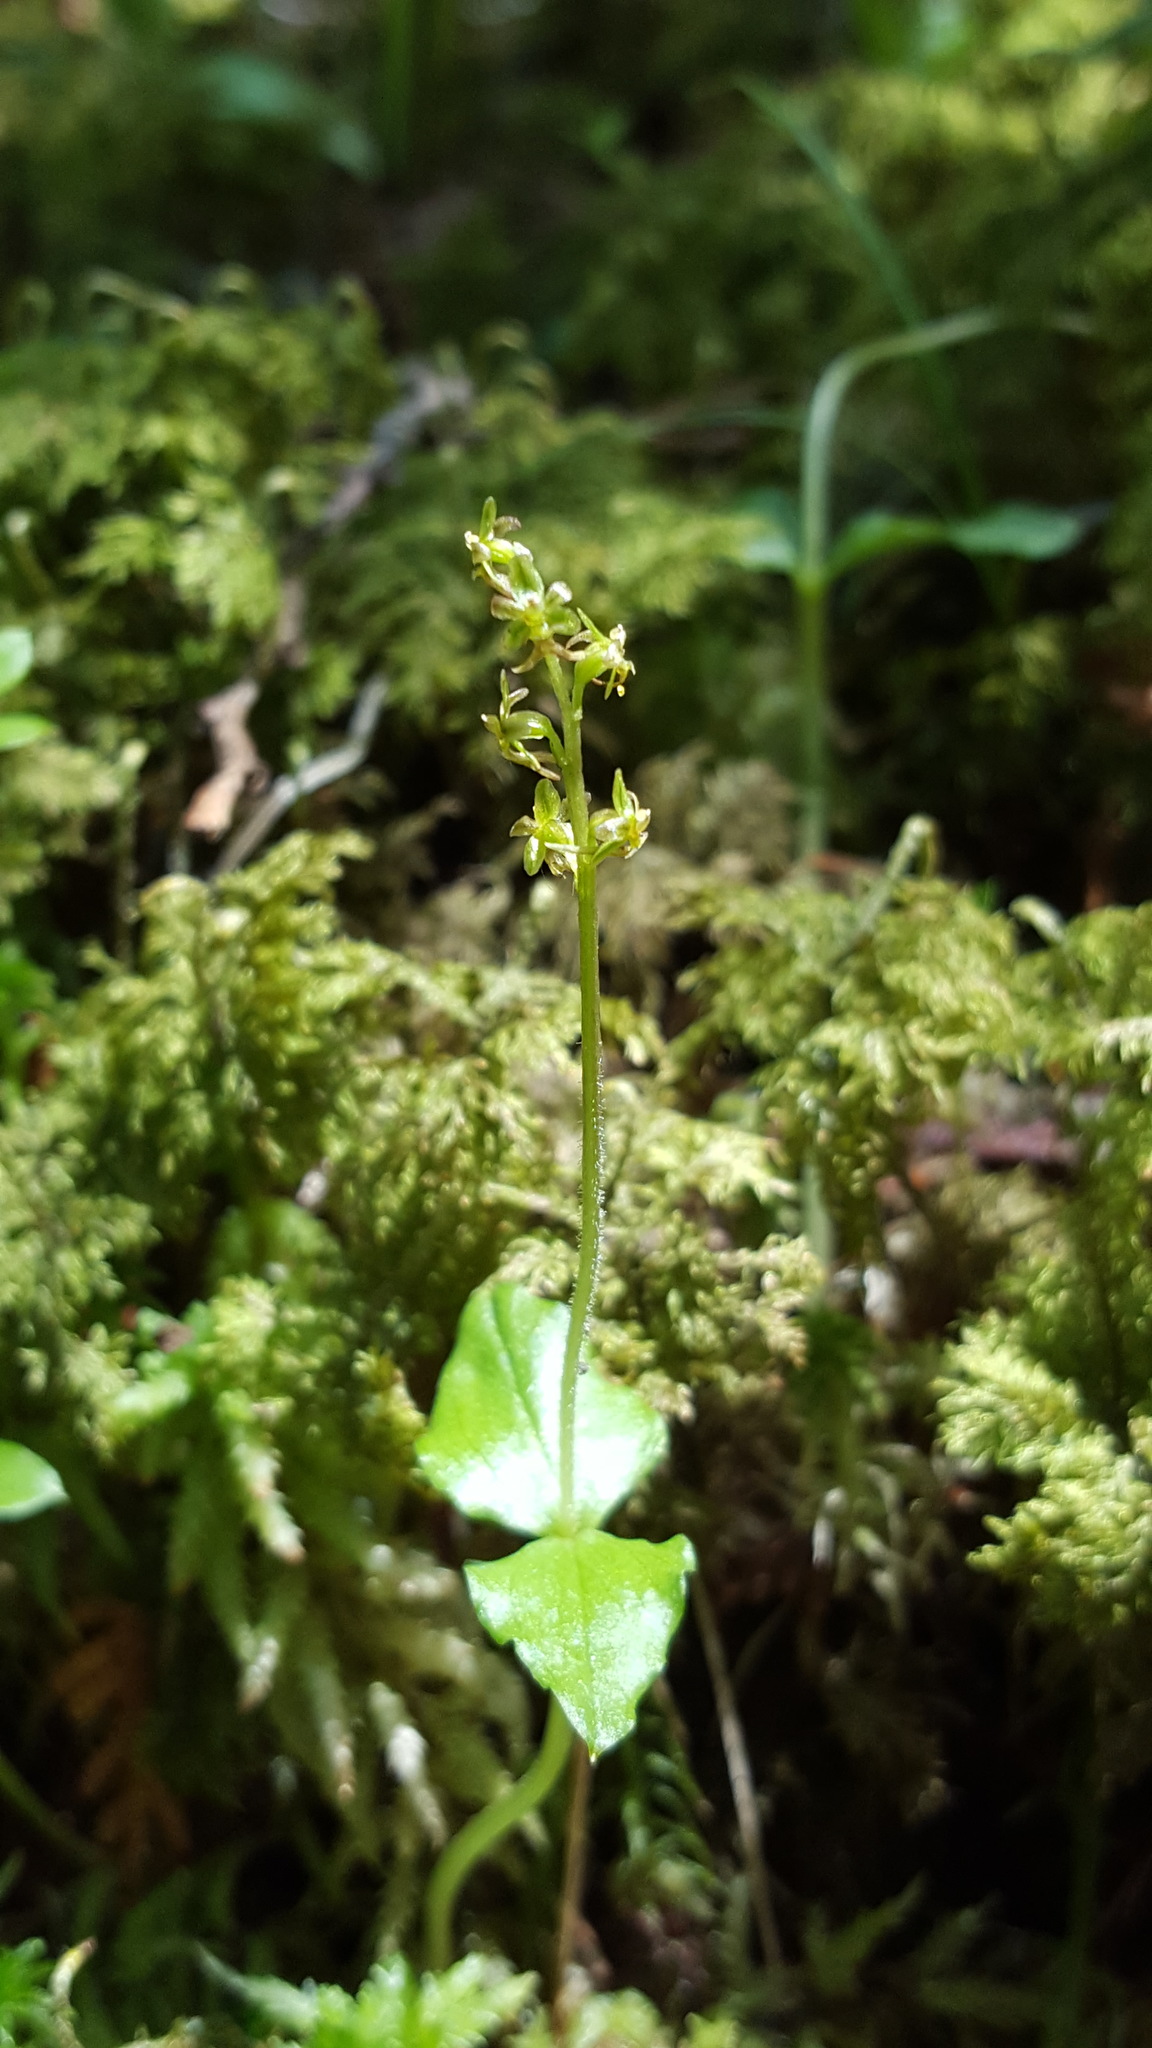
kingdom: Plantae
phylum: Tracheophyta
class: Liliopsida
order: Asparagales
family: Orchidaceae
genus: Neottia
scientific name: Neottia cordata
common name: Lesser twayblade
